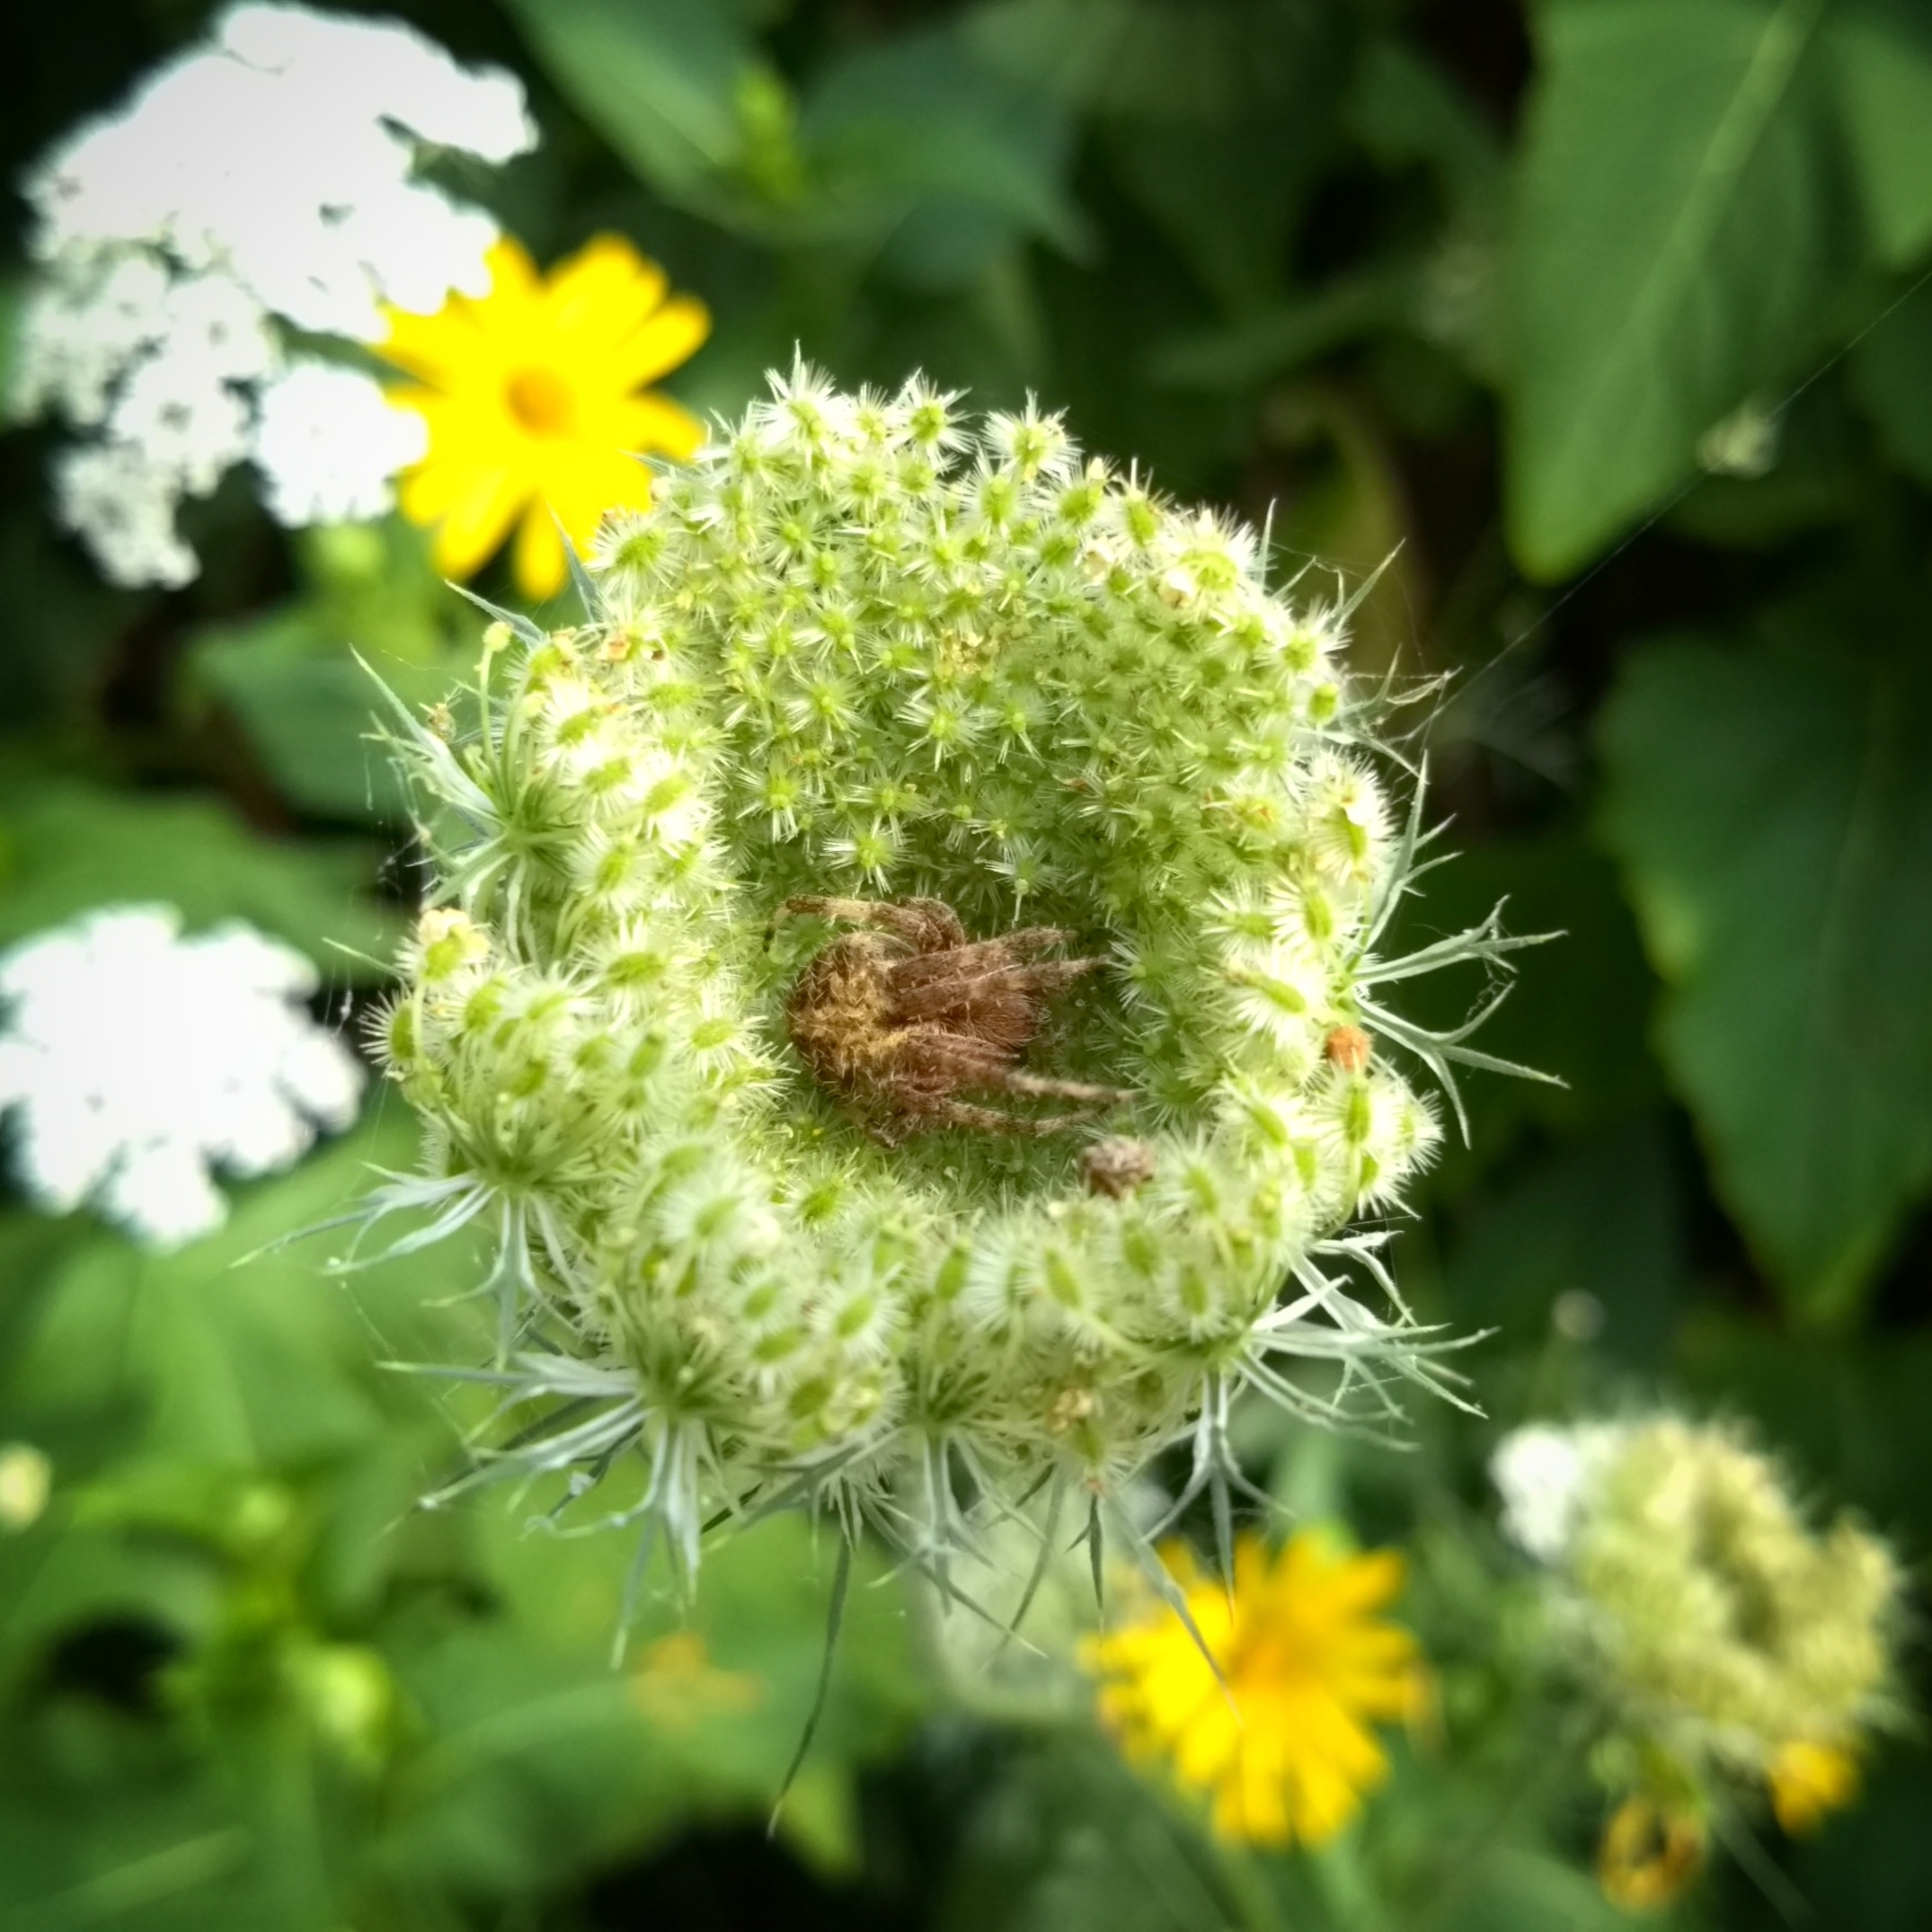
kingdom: Animalia
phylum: Arthropoda
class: Arachnida
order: Araneae
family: Araneidae
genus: Neoscona
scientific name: Neoscona crucifera
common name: Spotted orbweaver
